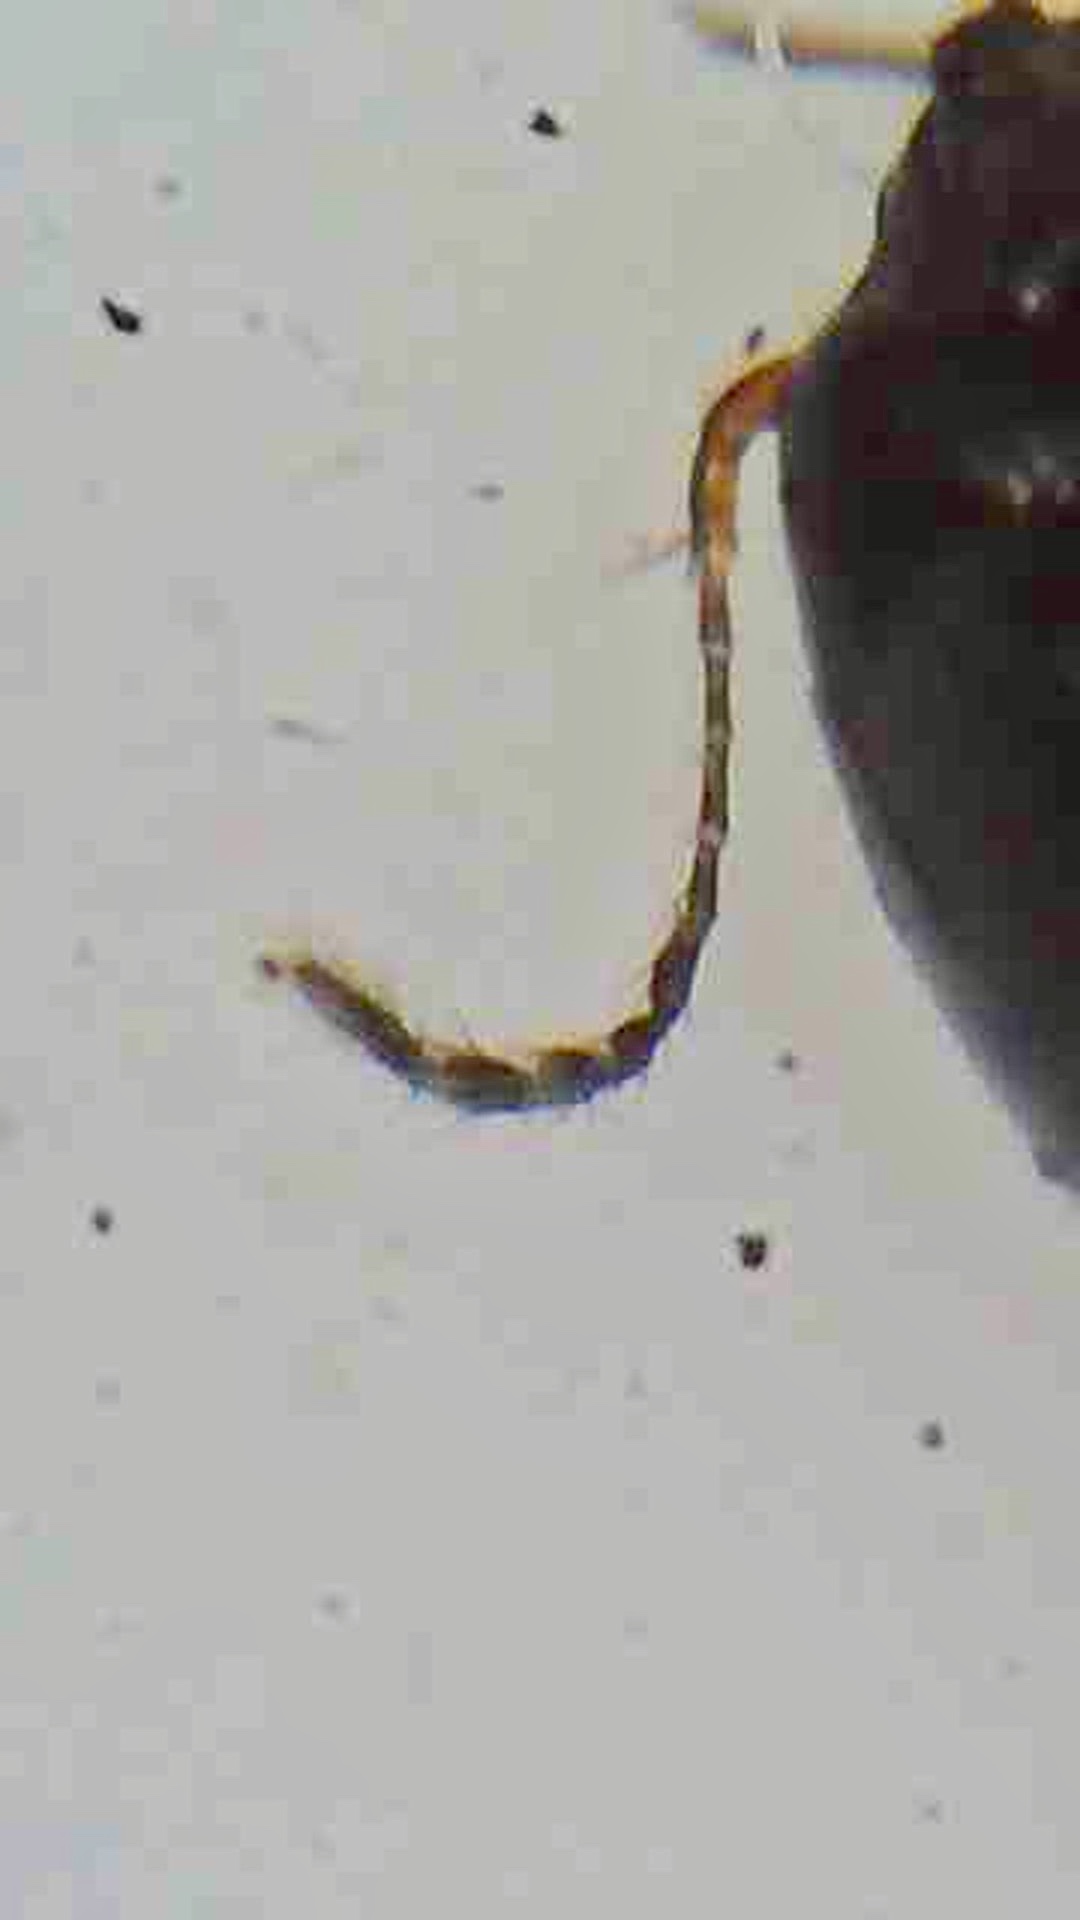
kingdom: Animalia
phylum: Arthropoda
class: Insecta
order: Coleoptera
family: Staphylinidae
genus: Baeocera
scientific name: Baeocera actuosa
